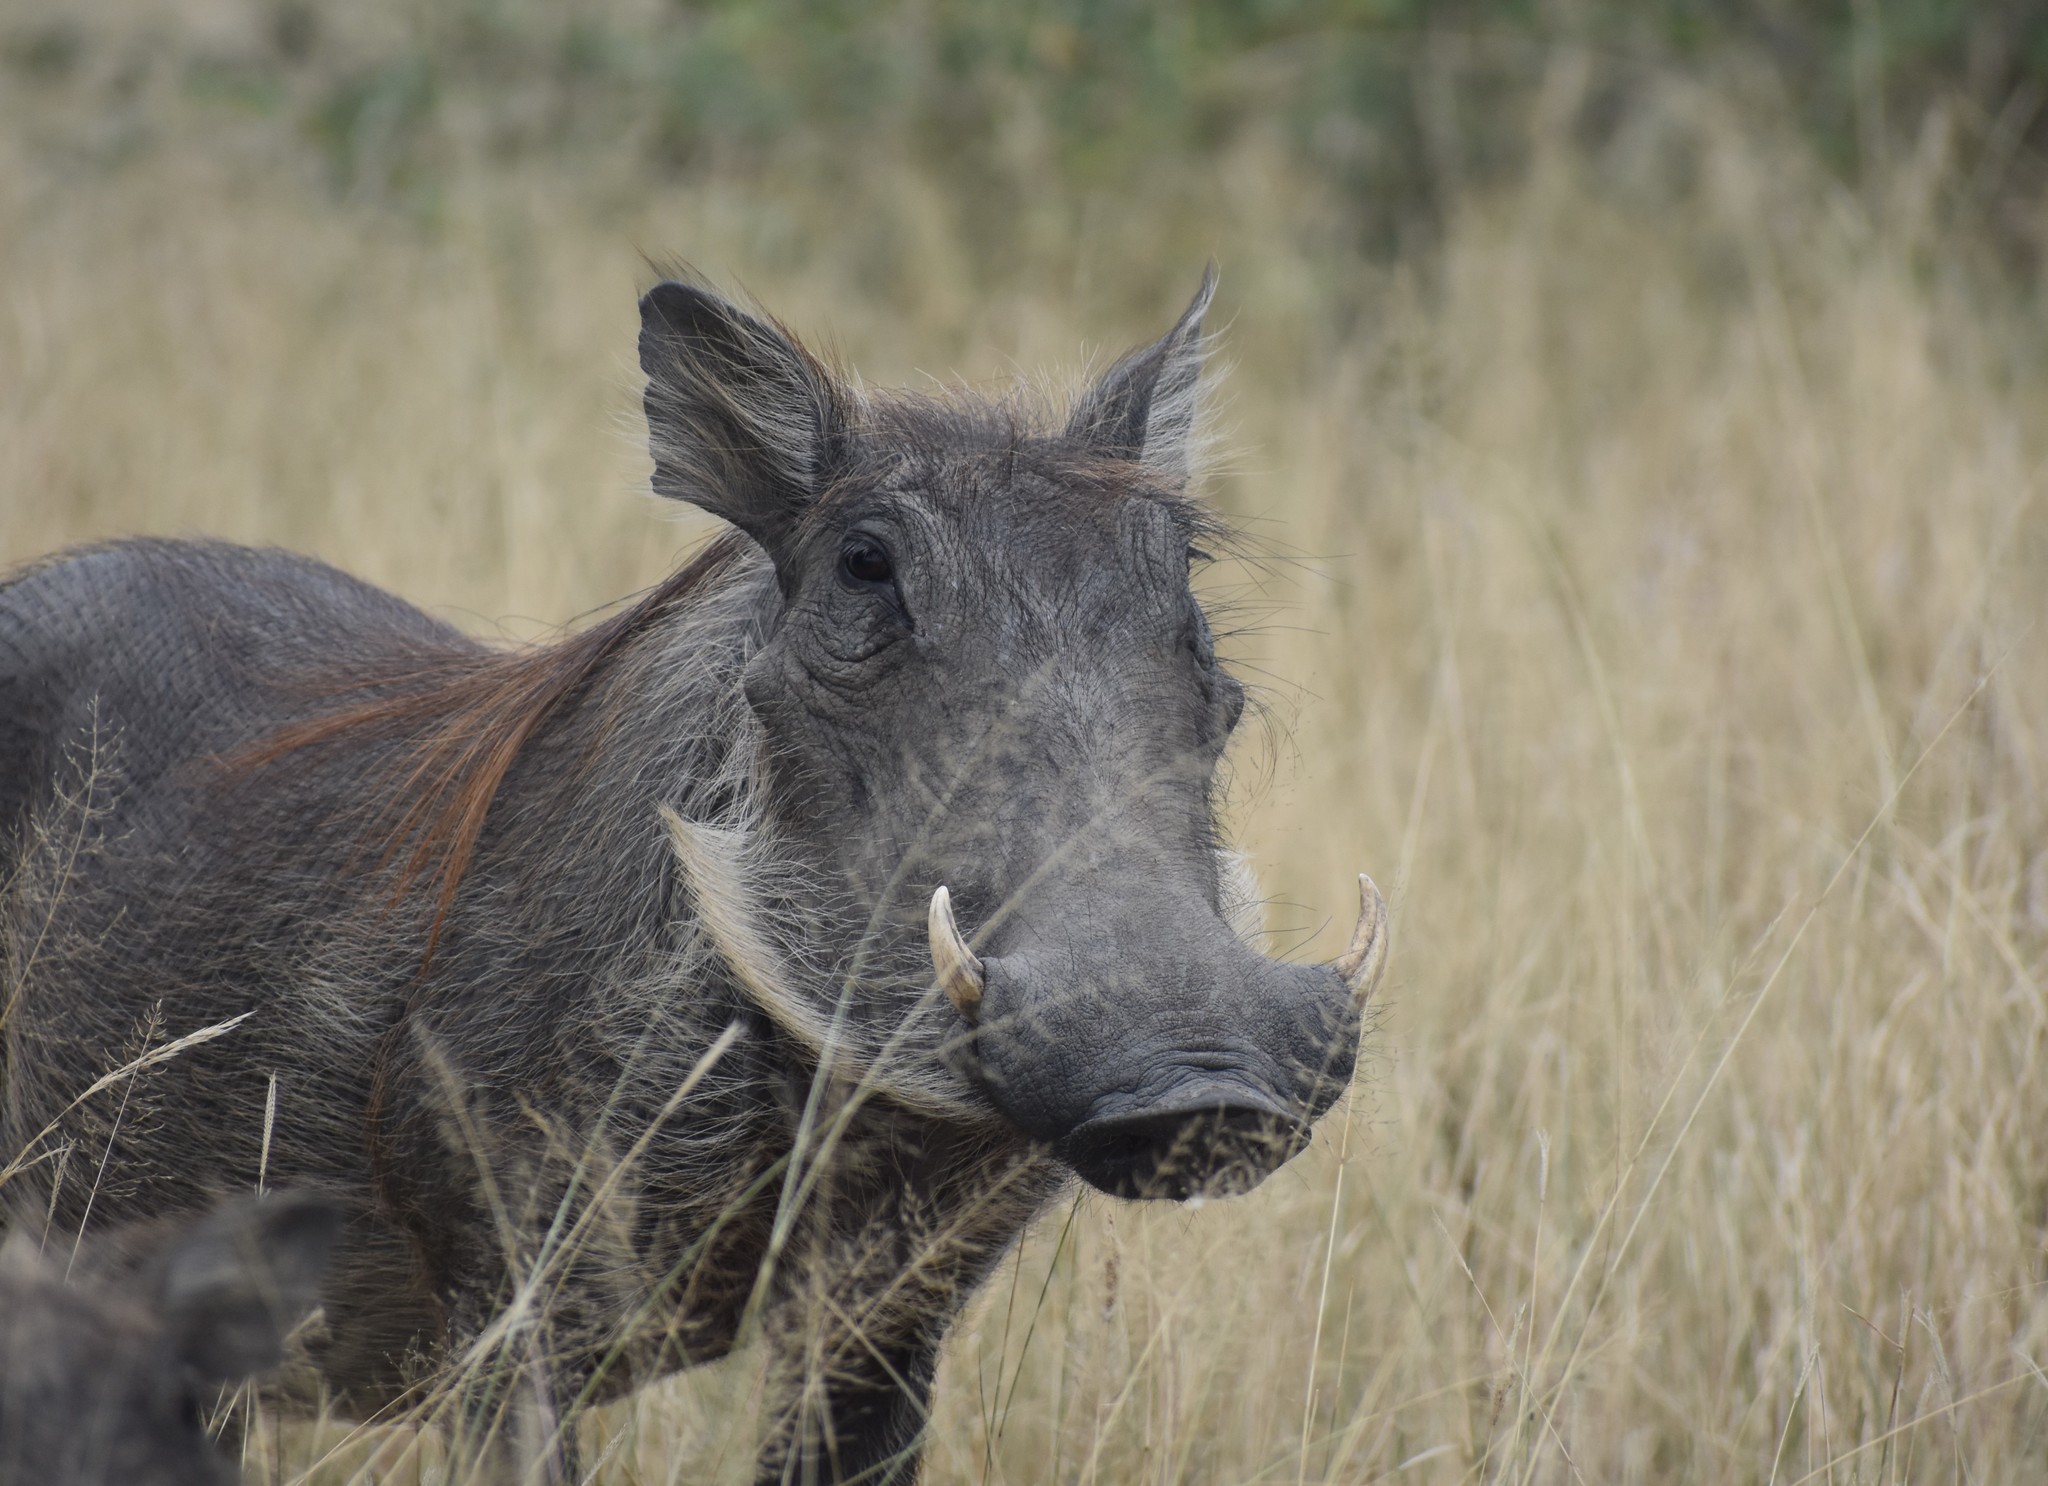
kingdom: Animalia
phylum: Chordata
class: Mammalia
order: Artiodactyla
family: Suidae
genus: Phacochoerus
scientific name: Phacochoerus africanus
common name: Common warthog
